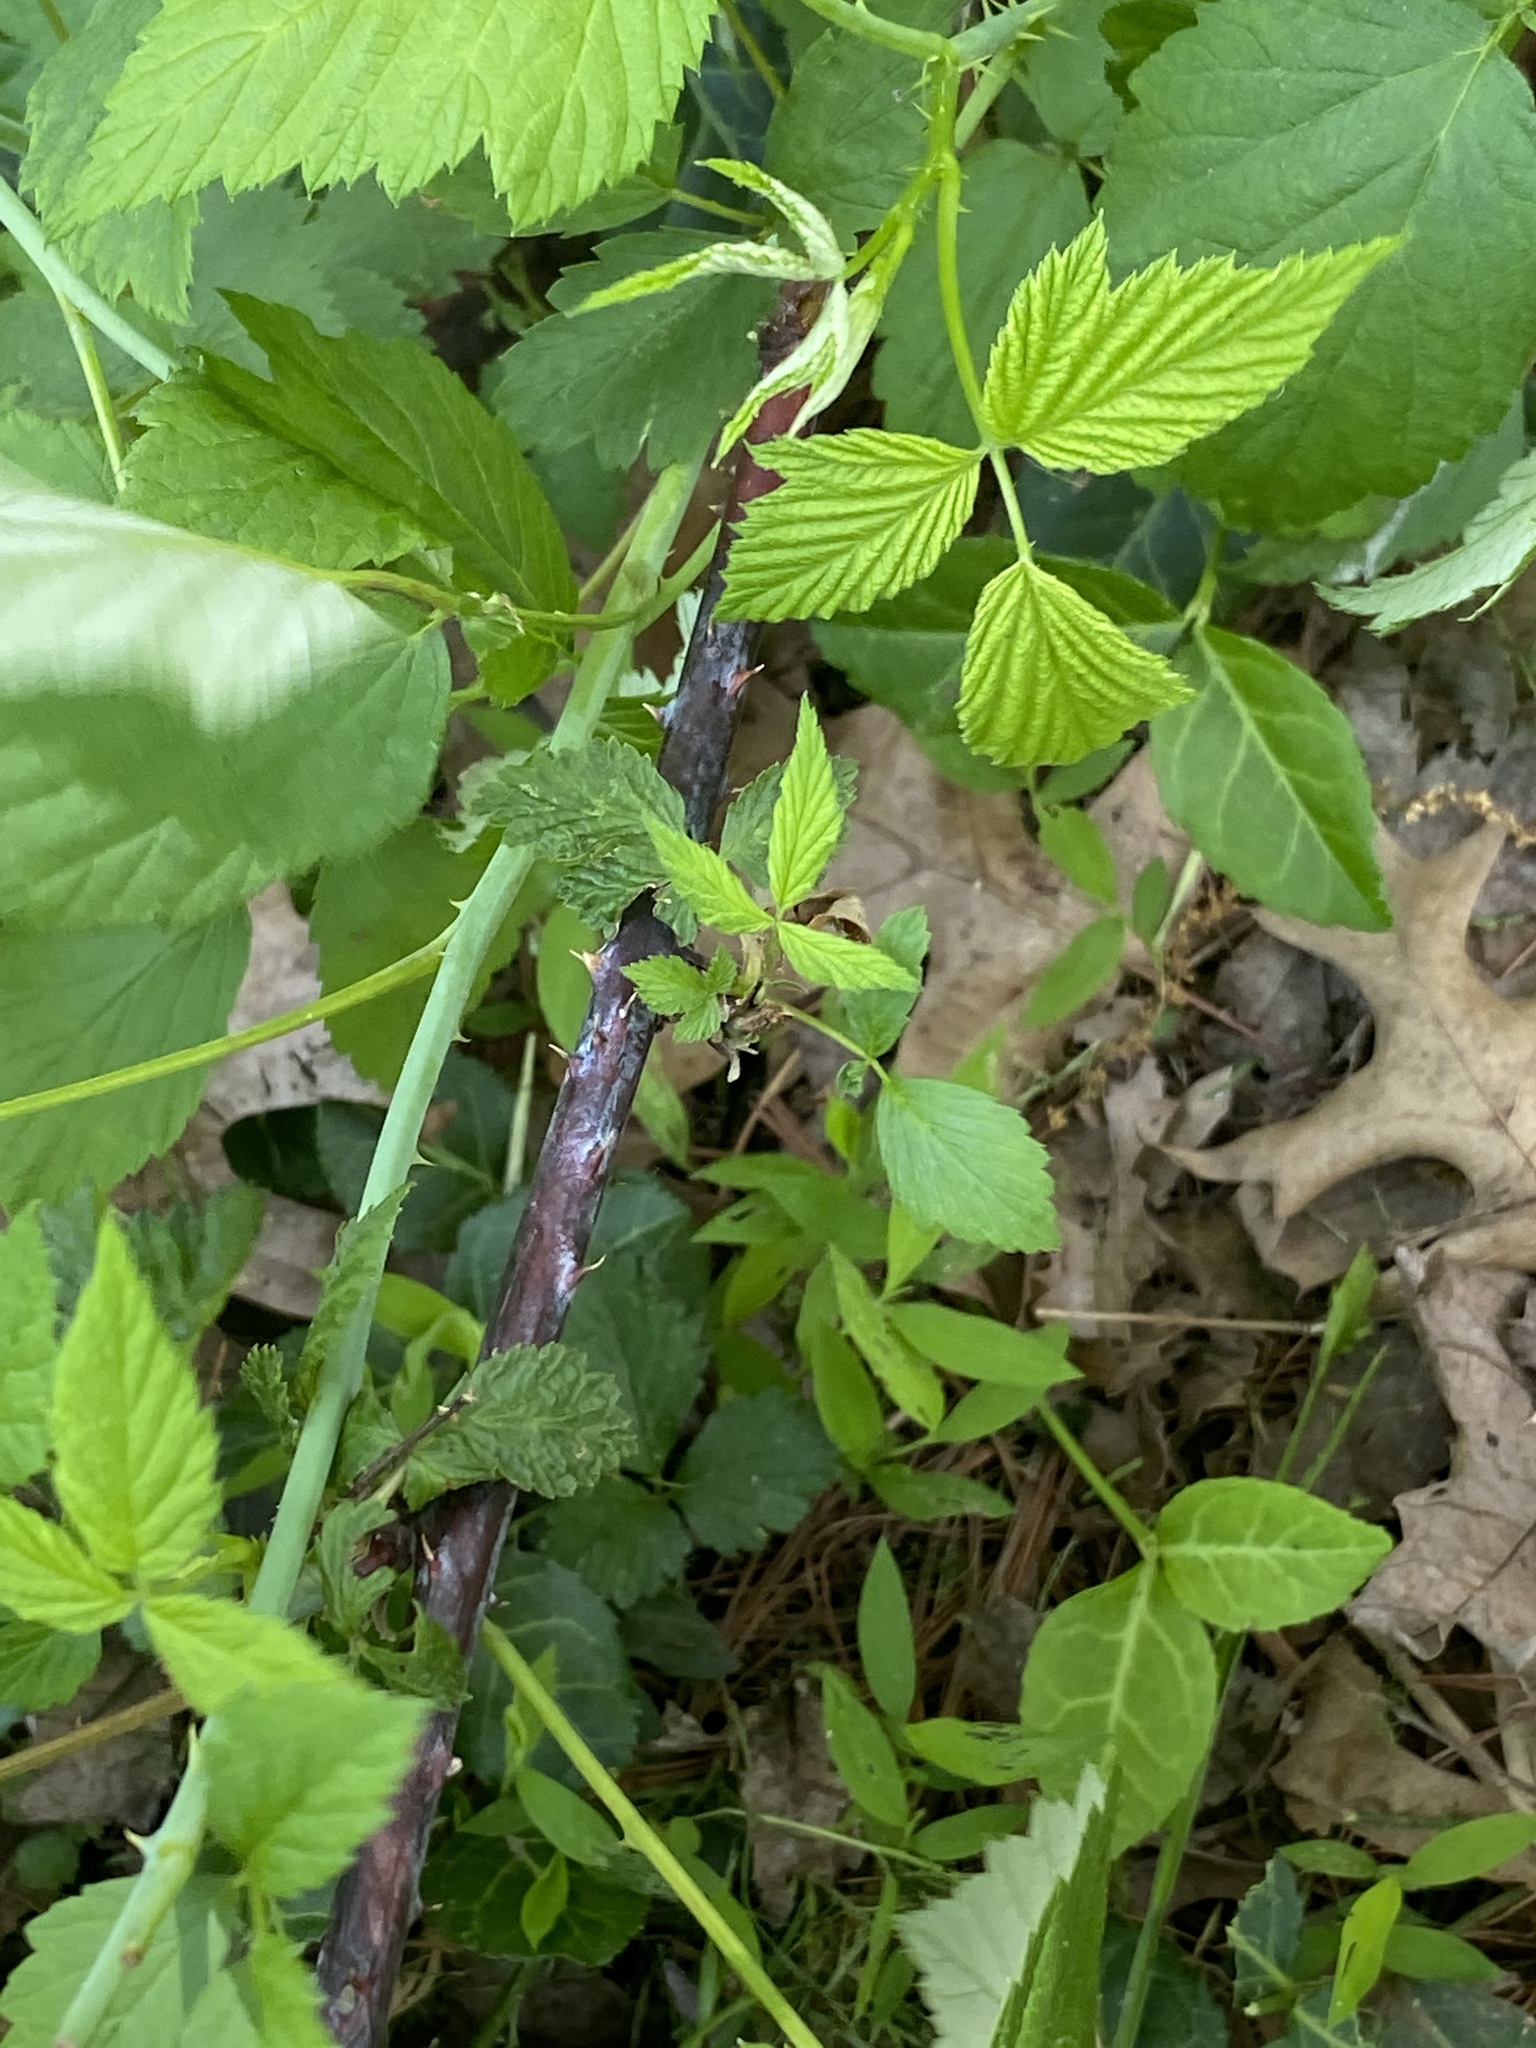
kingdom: Plantae
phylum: Tracheophyta
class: Magnoliopsida
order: Rosales
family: Rosaceae
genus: Rubus
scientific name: Rubus occidentalis
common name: Black raspberry
